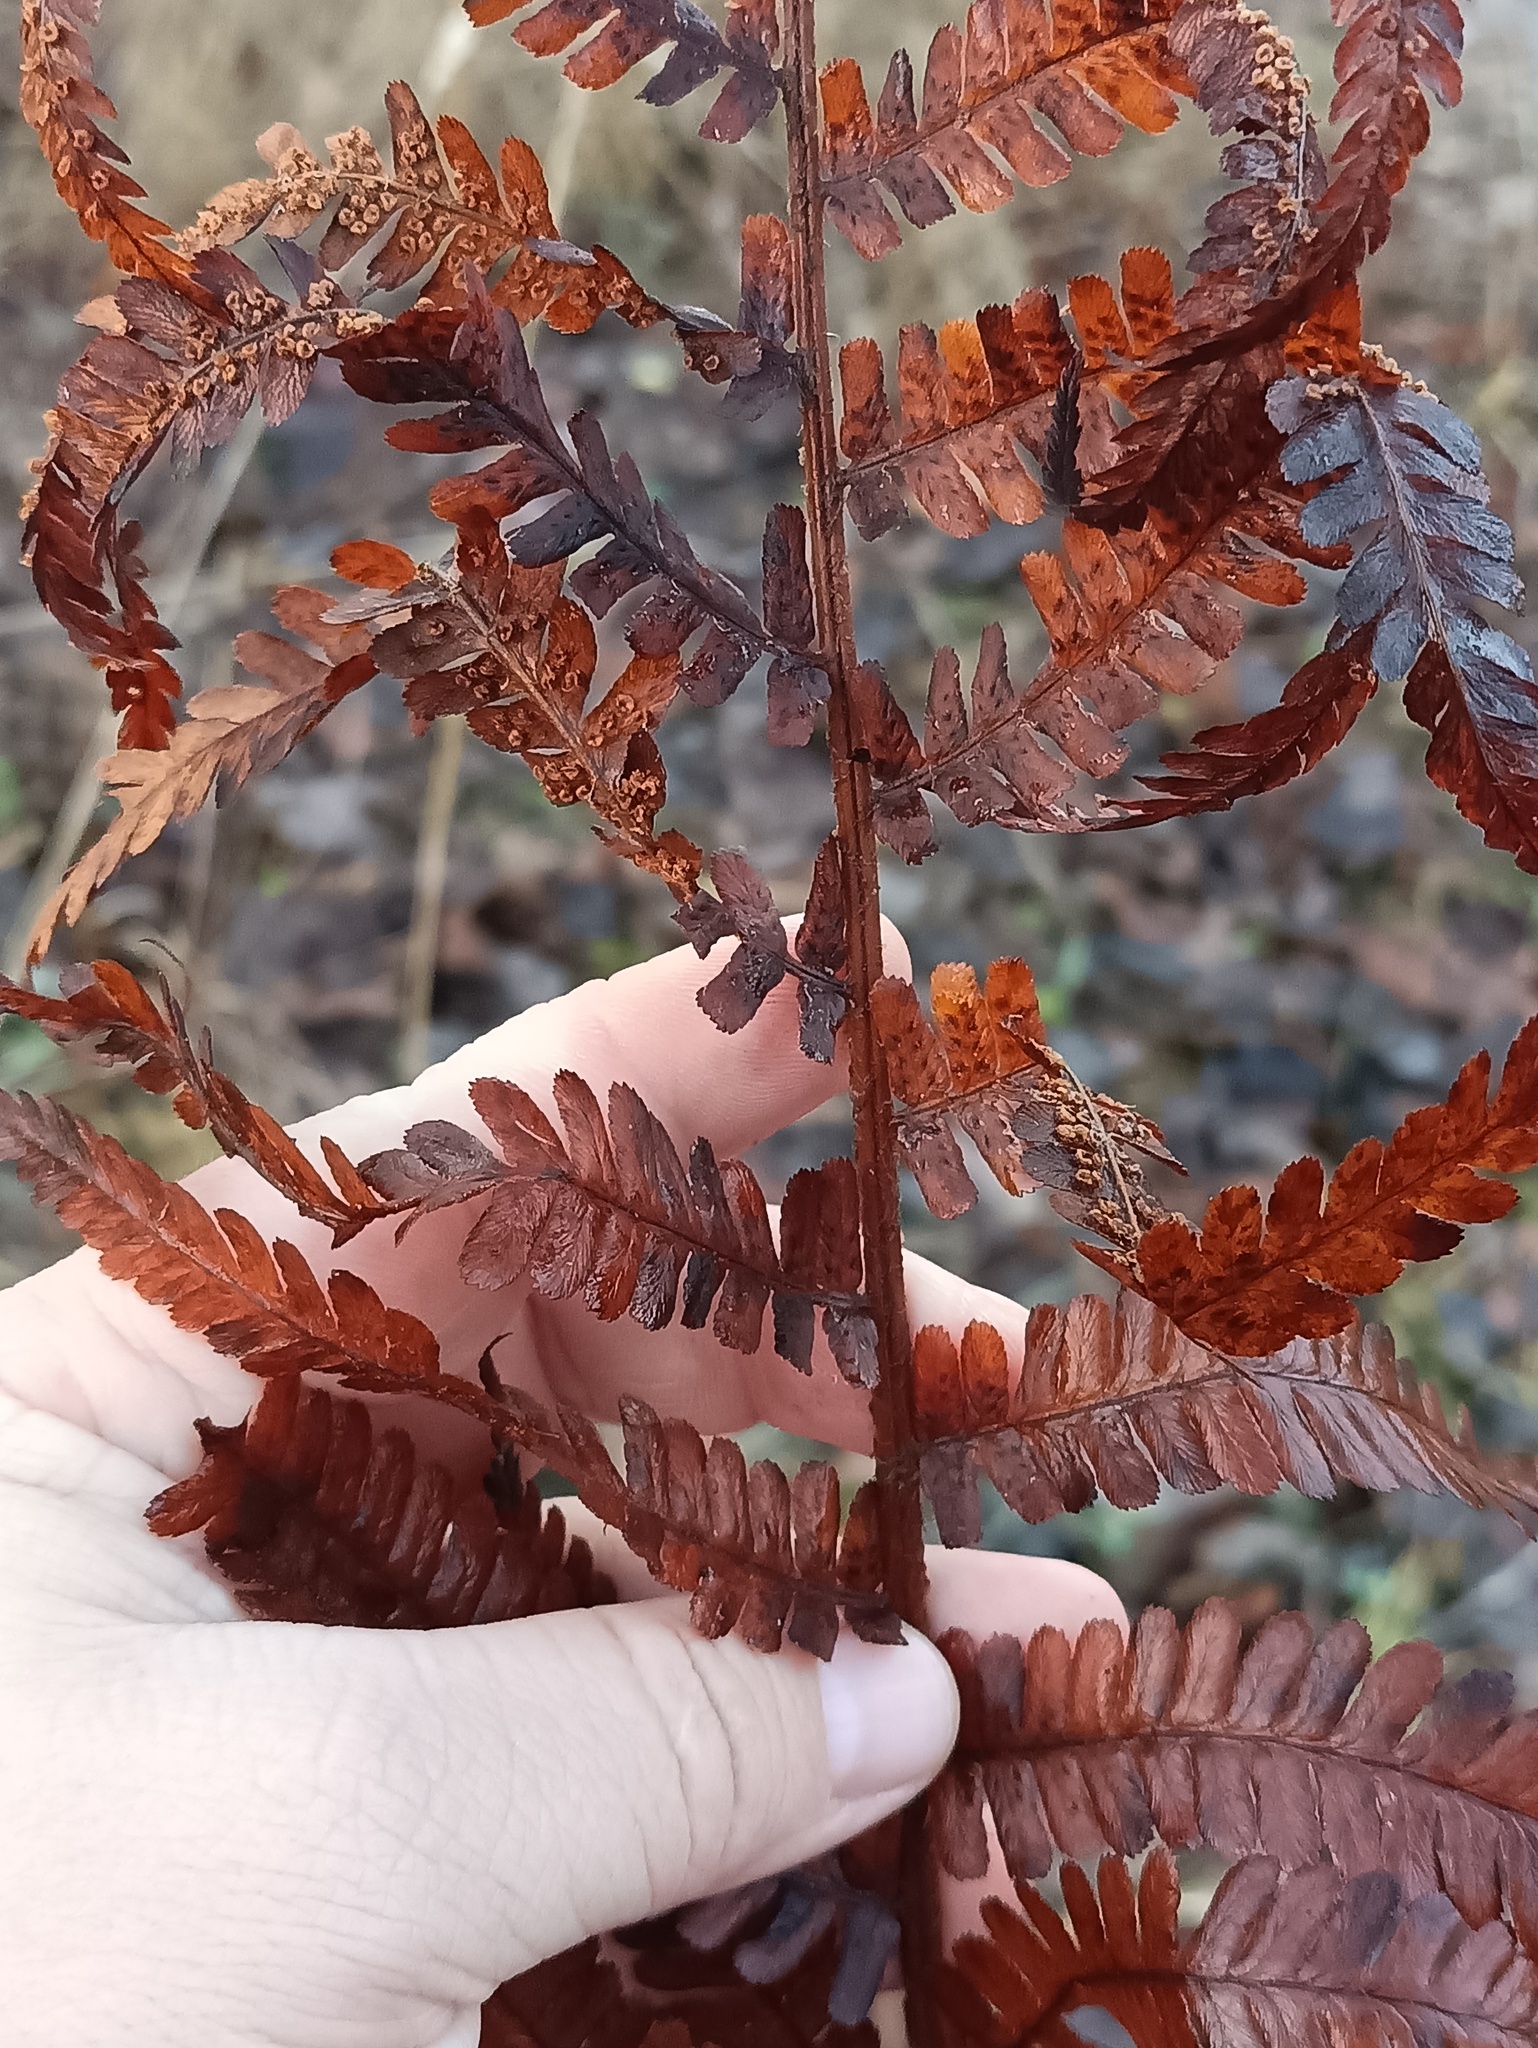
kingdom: Plantae
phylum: Tracheophyta
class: Polypodiopsida
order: Polypodiales
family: Dryopteridaceae
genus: Dryopteris
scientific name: Dryopteris filix-mas
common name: Male fern
